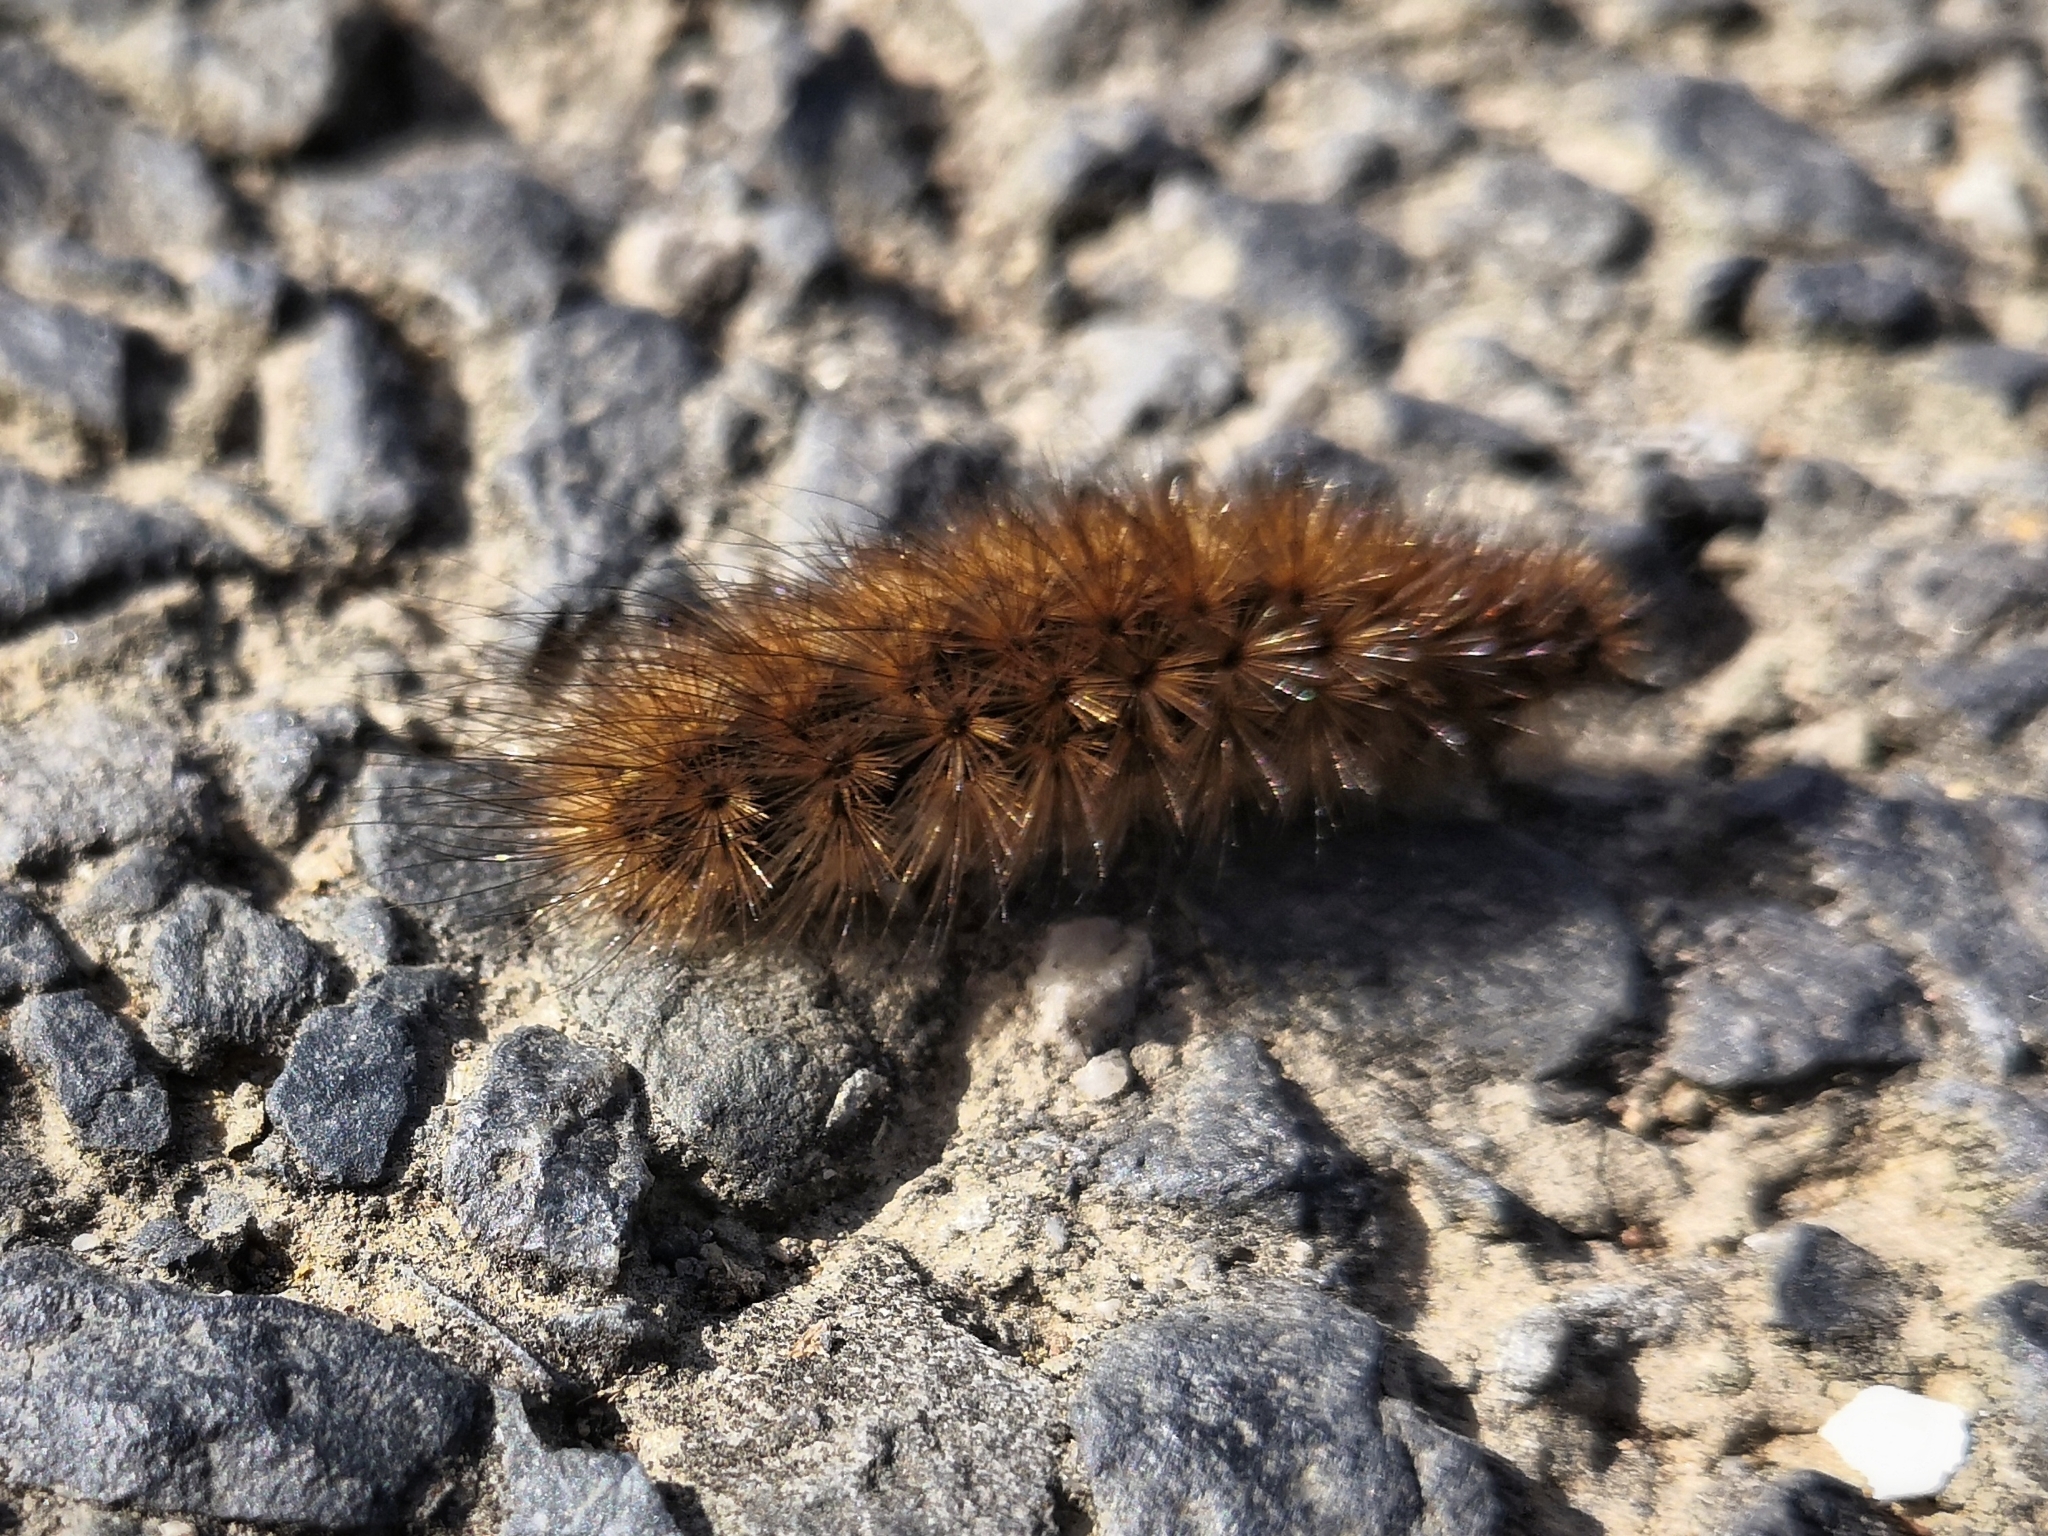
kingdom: Animalia
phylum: Arthropoda
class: Insecta
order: Lepidoptera
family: Erebidae
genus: Phragmatobia
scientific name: Phragmatobia fuliginosa
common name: Ruby tiger
